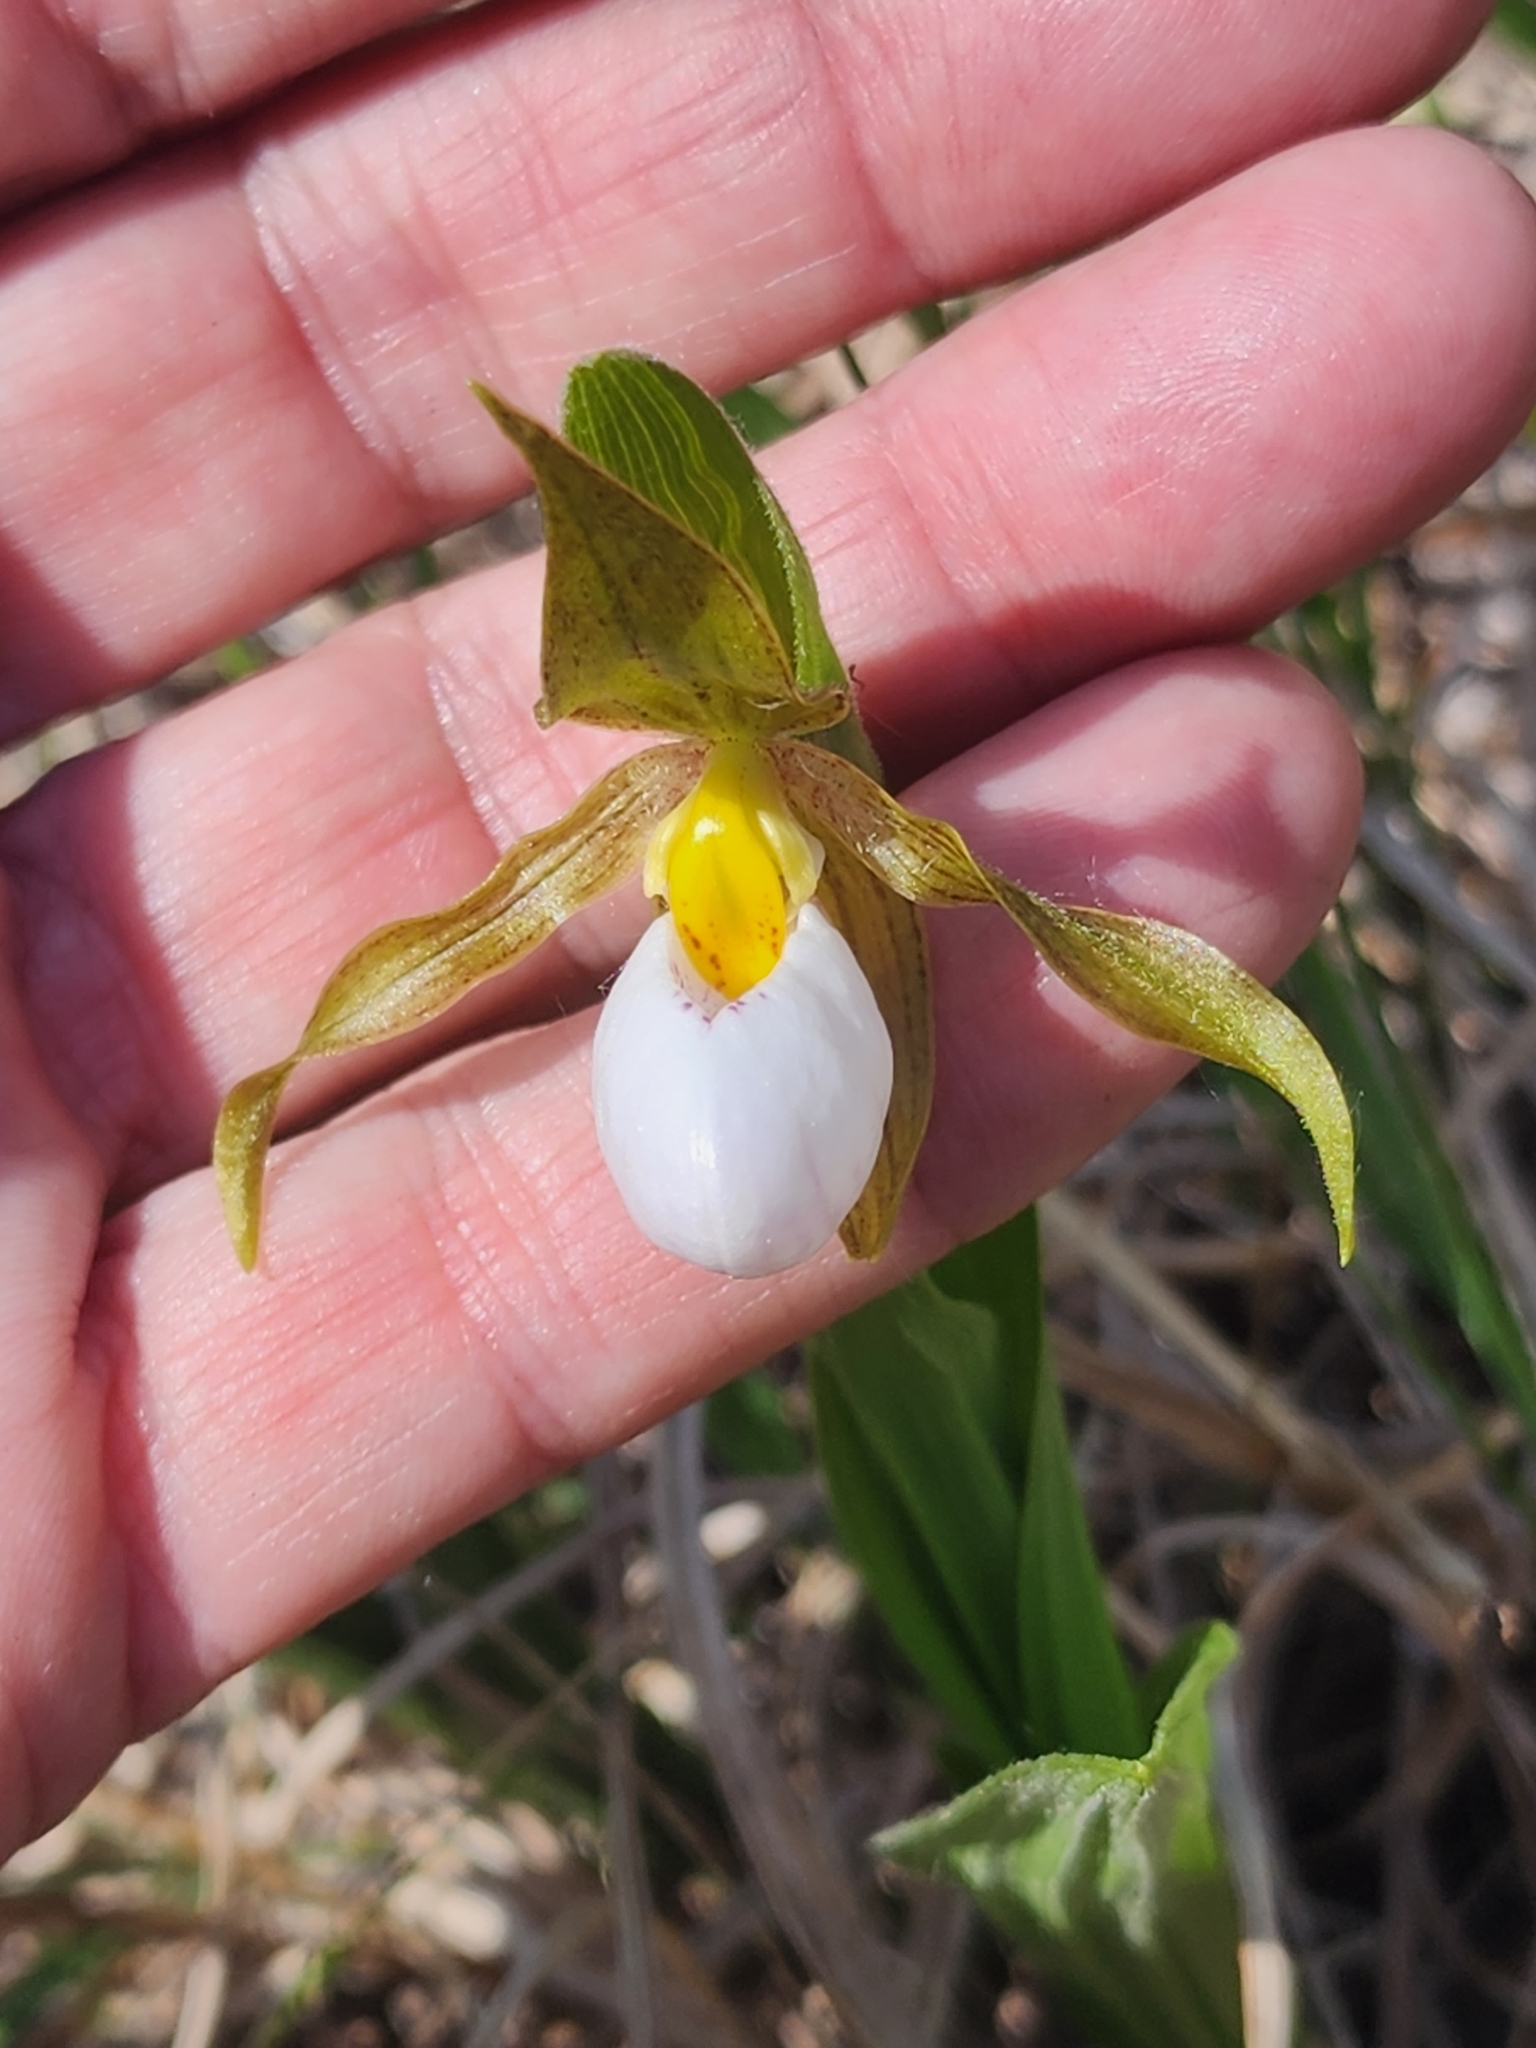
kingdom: Plantae
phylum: Tracheophyta
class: Liliopsida
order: Asparagales
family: Orchidaceae
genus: Cypripedium
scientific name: Cypripedium candidum
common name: White lady's-slipper
